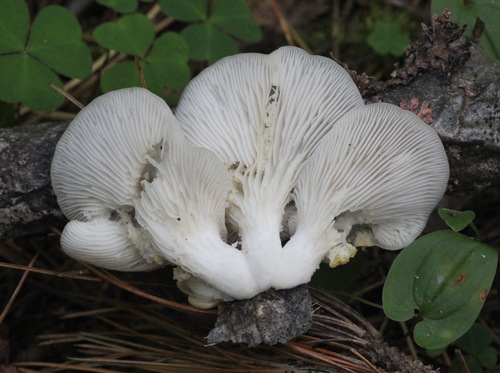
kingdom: Fungi
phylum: Basidiomycota
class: Agaricomycetes
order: Agaricales
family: Pleurotaceae
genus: Pleurotus
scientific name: Pleurotus pulmonarius
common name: Pale oyster
